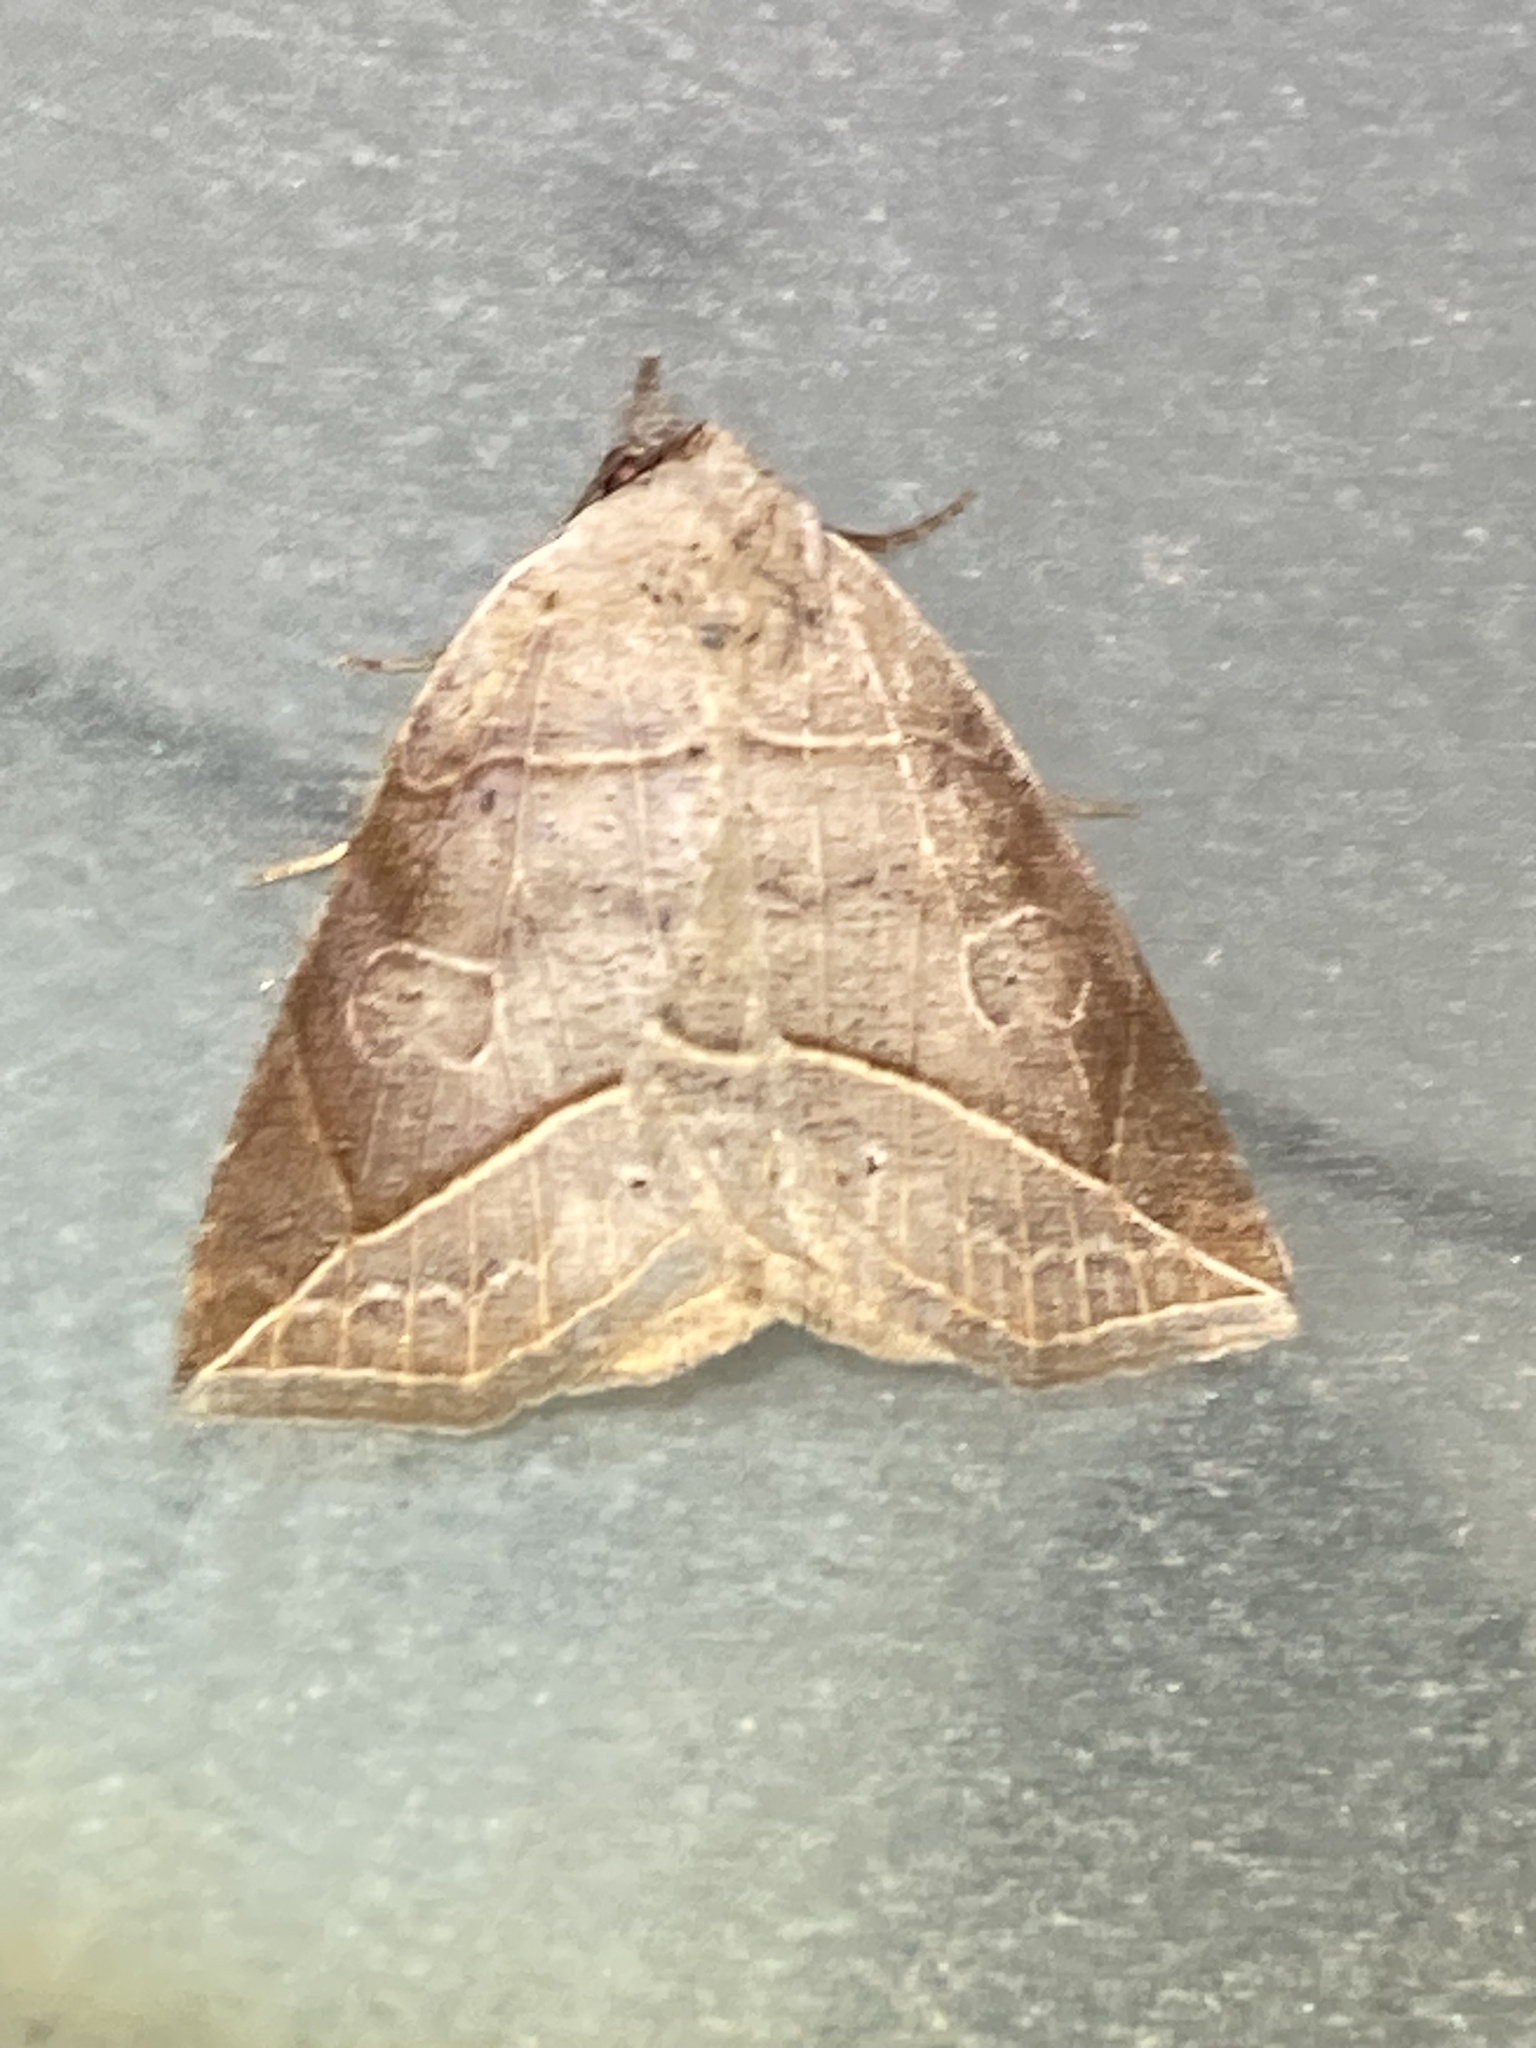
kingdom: Animalia
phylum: Arthropoda
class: Insecta
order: Lepidoptera
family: Erebidae
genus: Isogona
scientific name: Isogona tenuis
